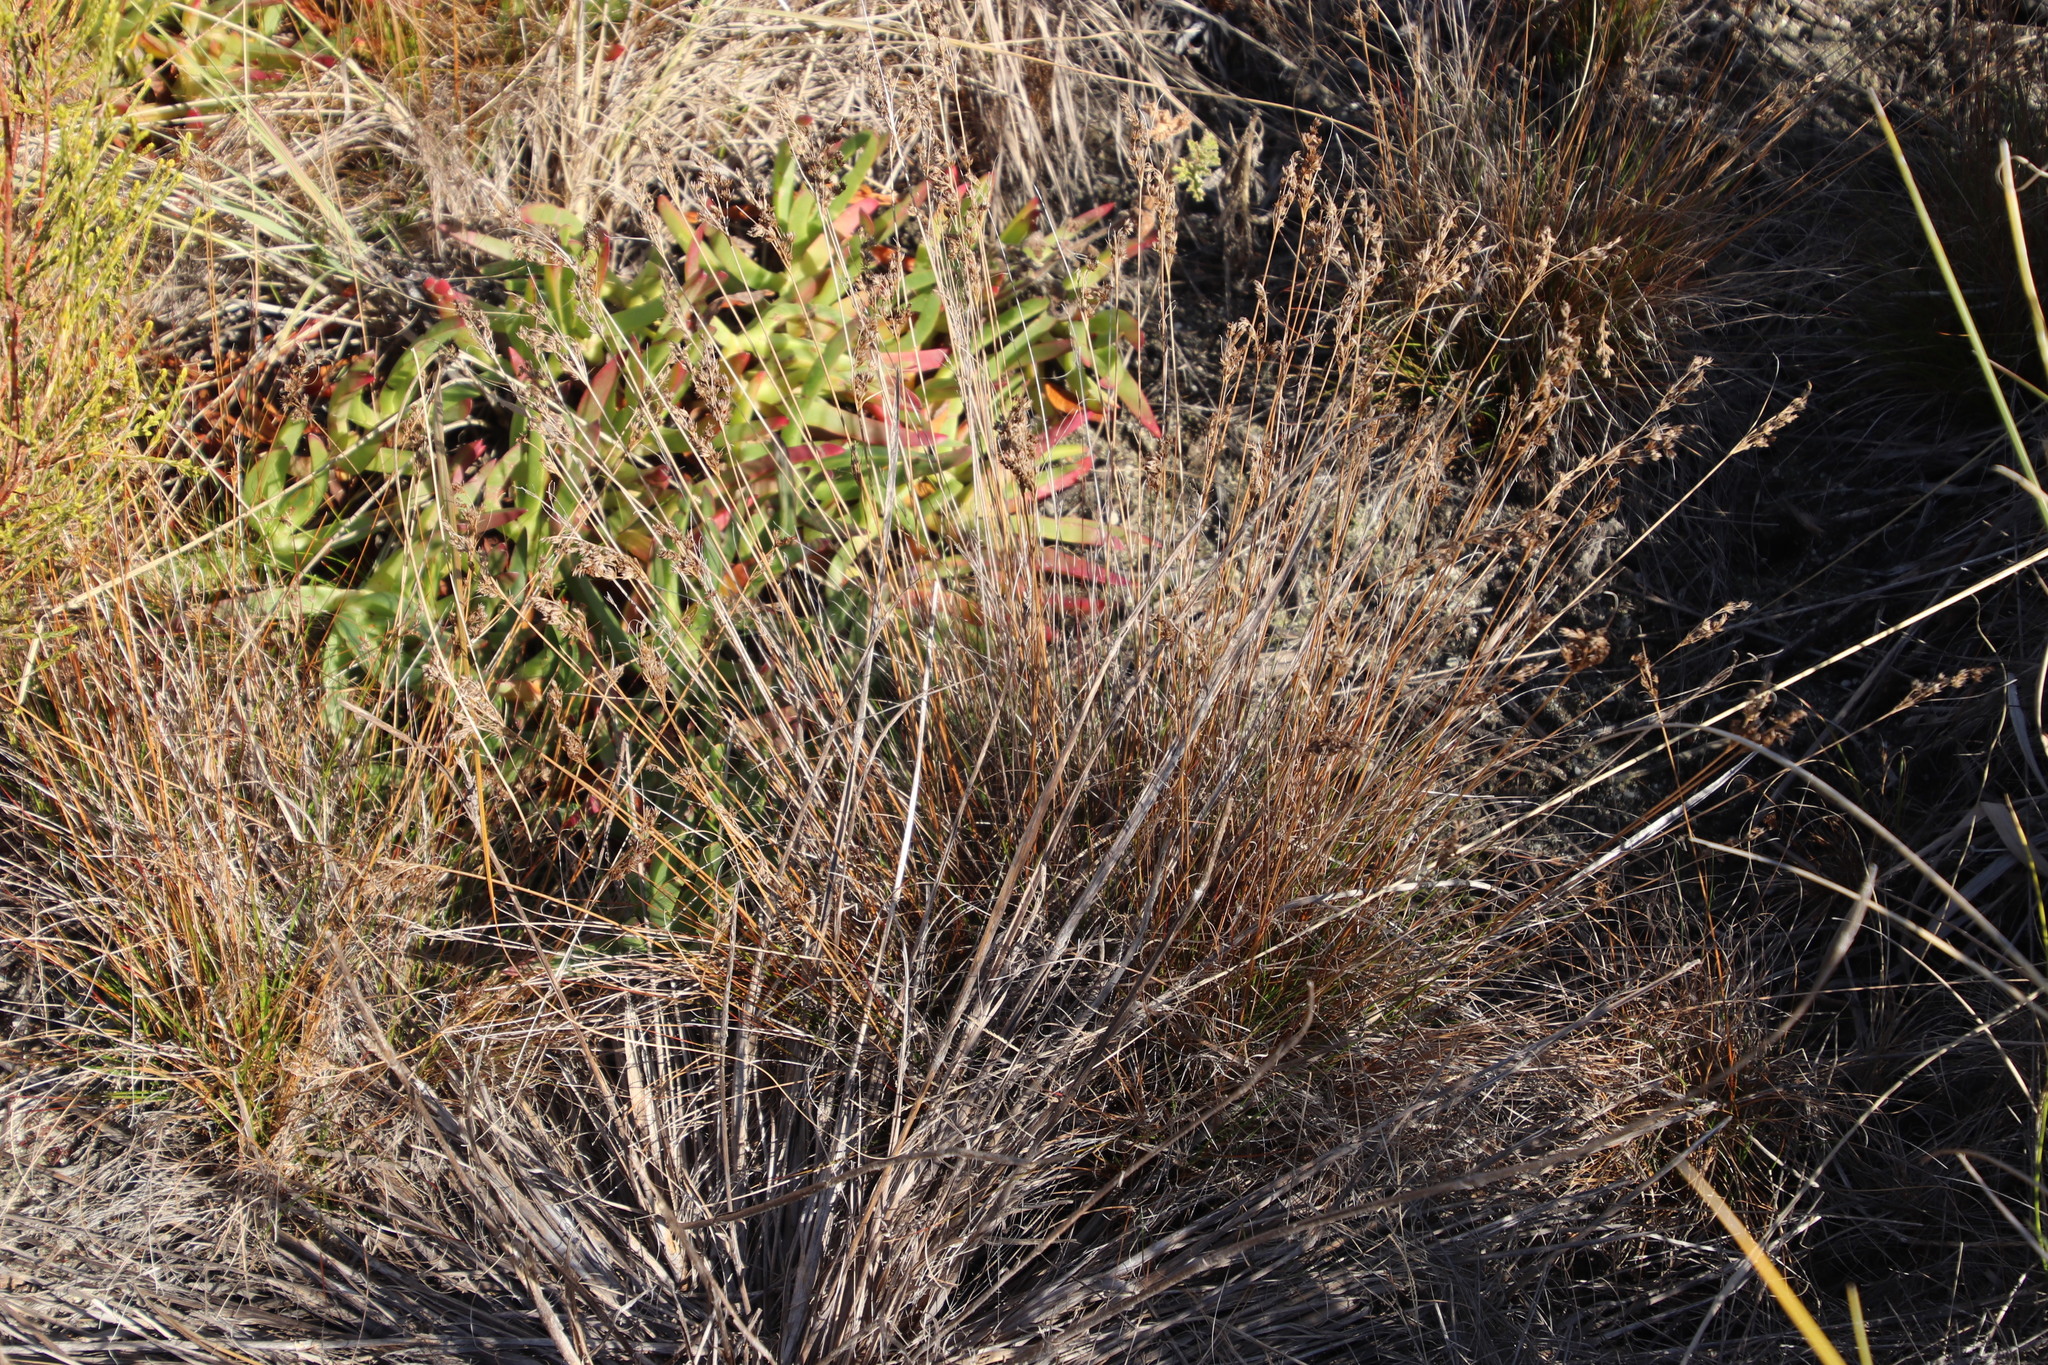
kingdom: Plantae
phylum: Tracheophyta
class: Liliopsida
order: Poales
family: Juncaceae
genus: Juncus
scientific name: Juncus capensis
